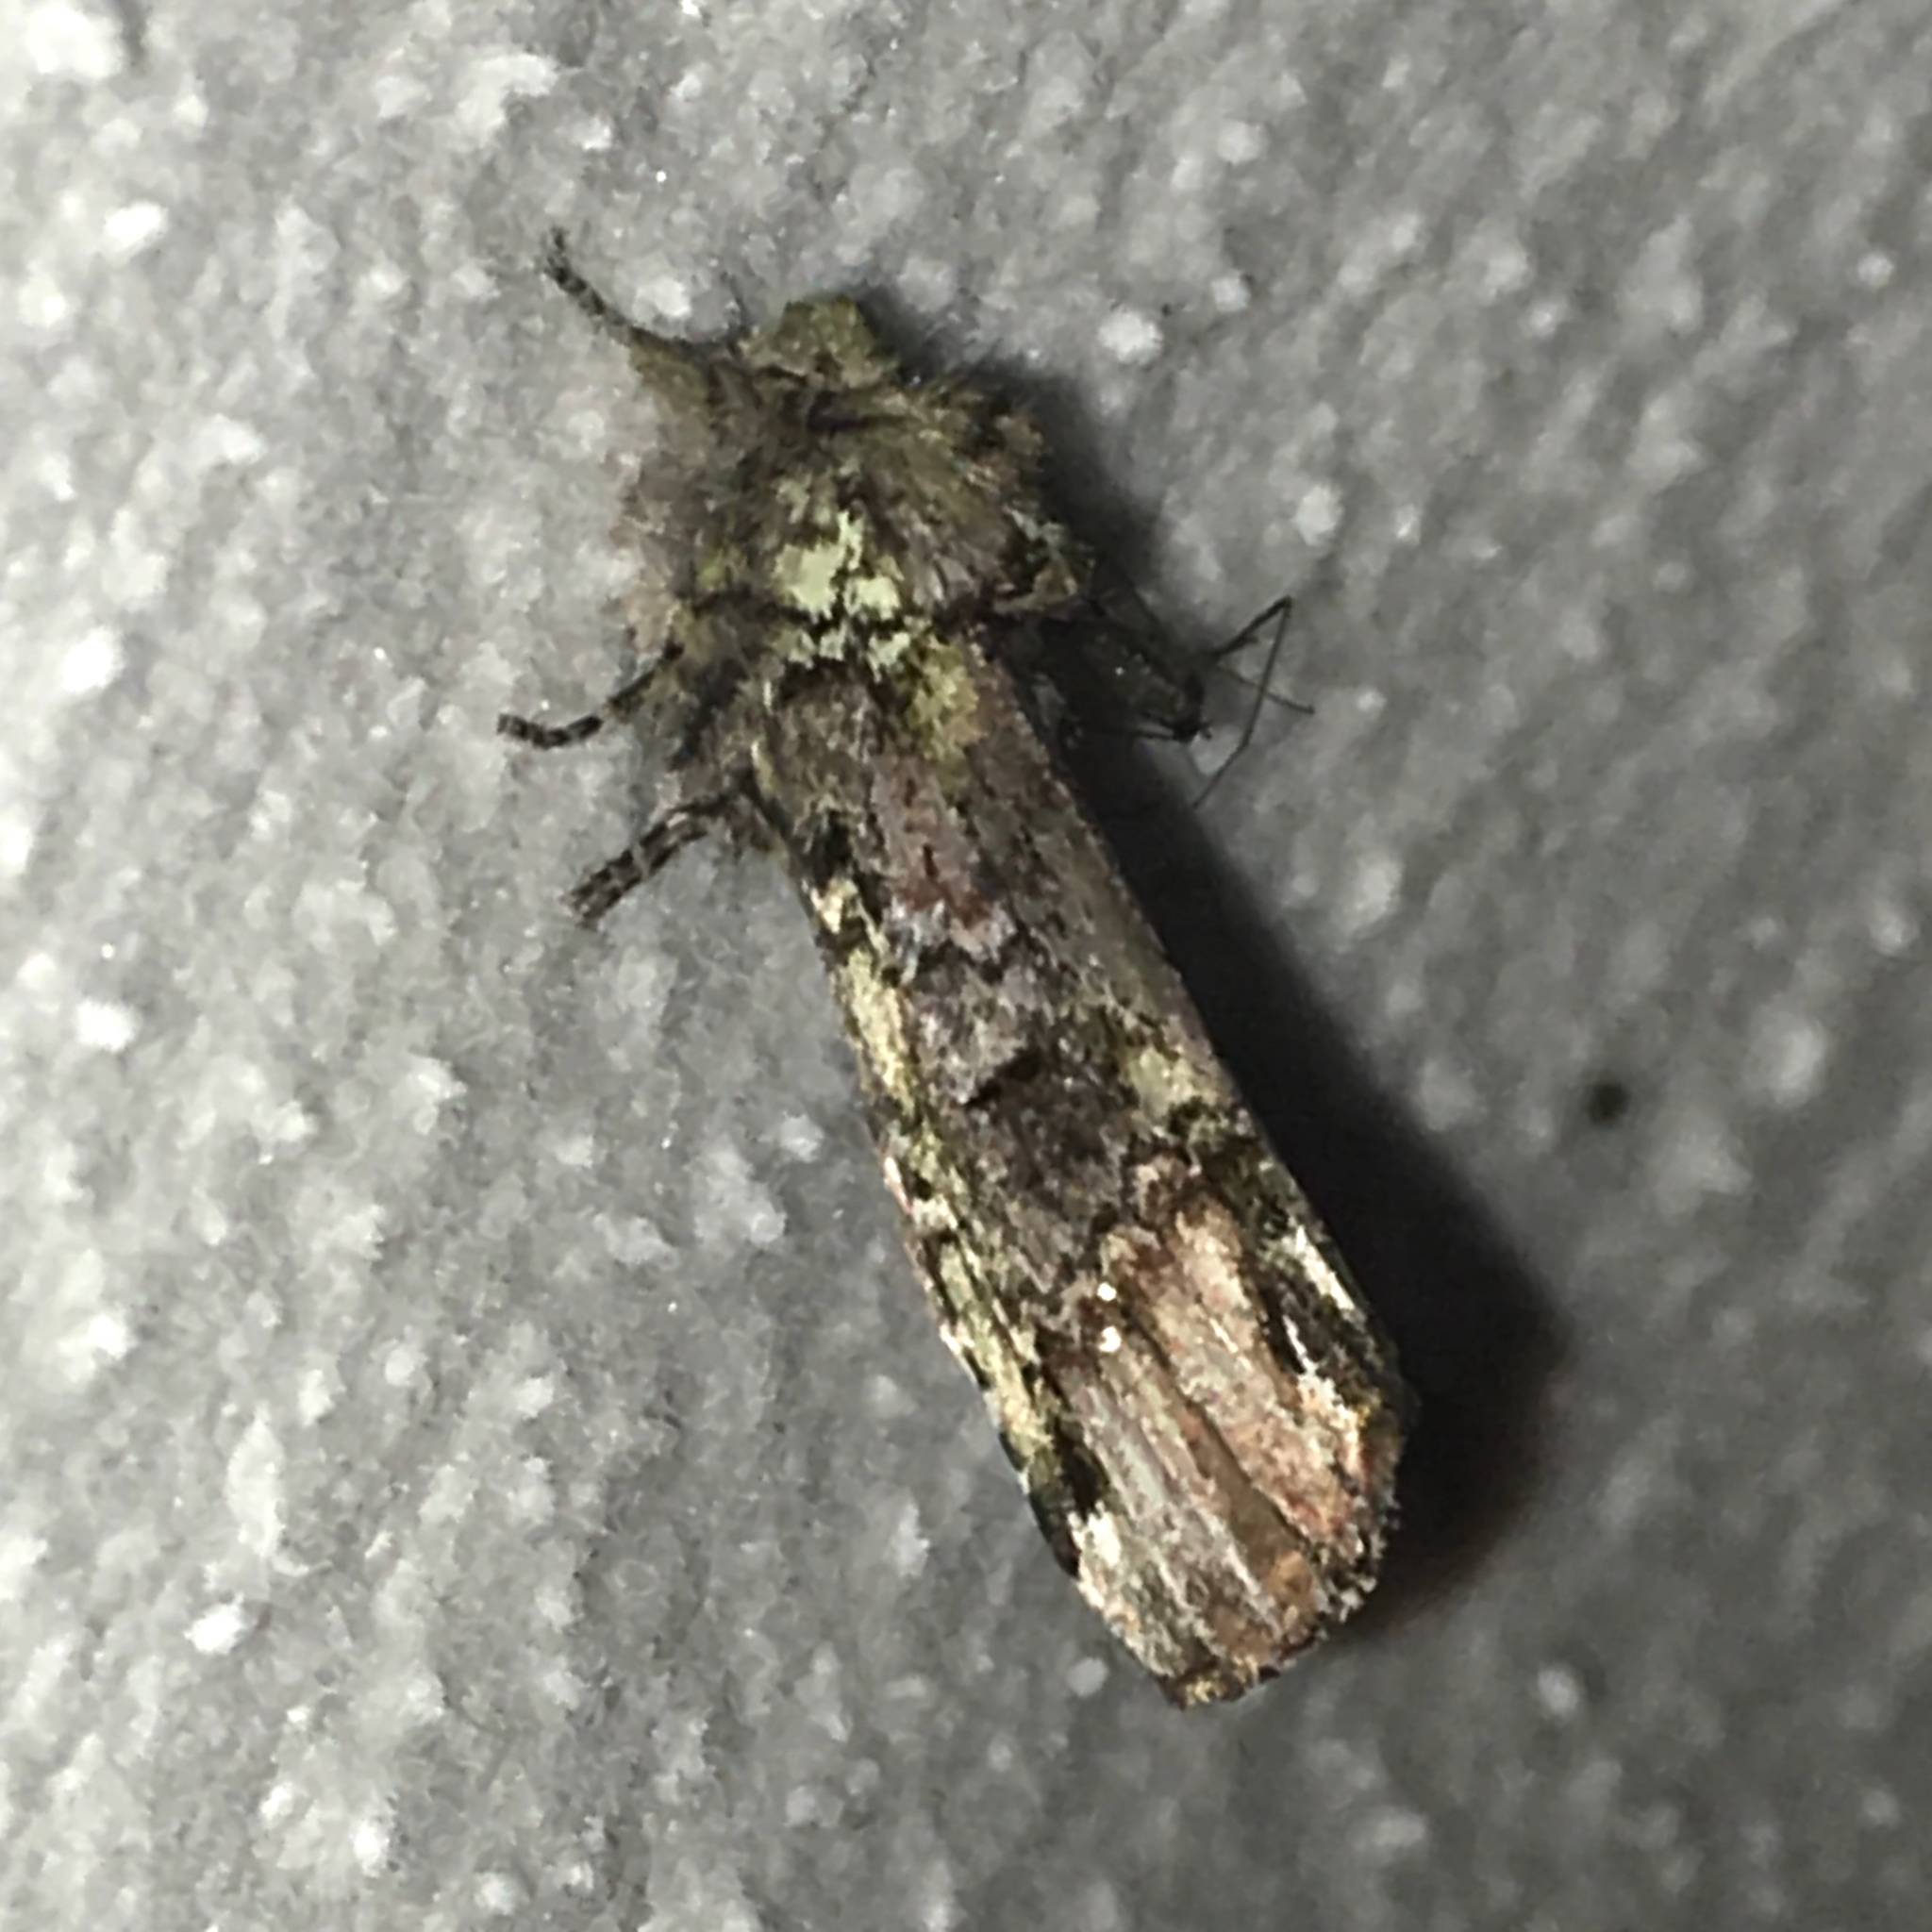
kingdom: Animalia
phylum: Arthropoda
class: Insecta
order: Lepidoptera
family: Notodontidae
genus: Schizura
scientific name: Schizura
